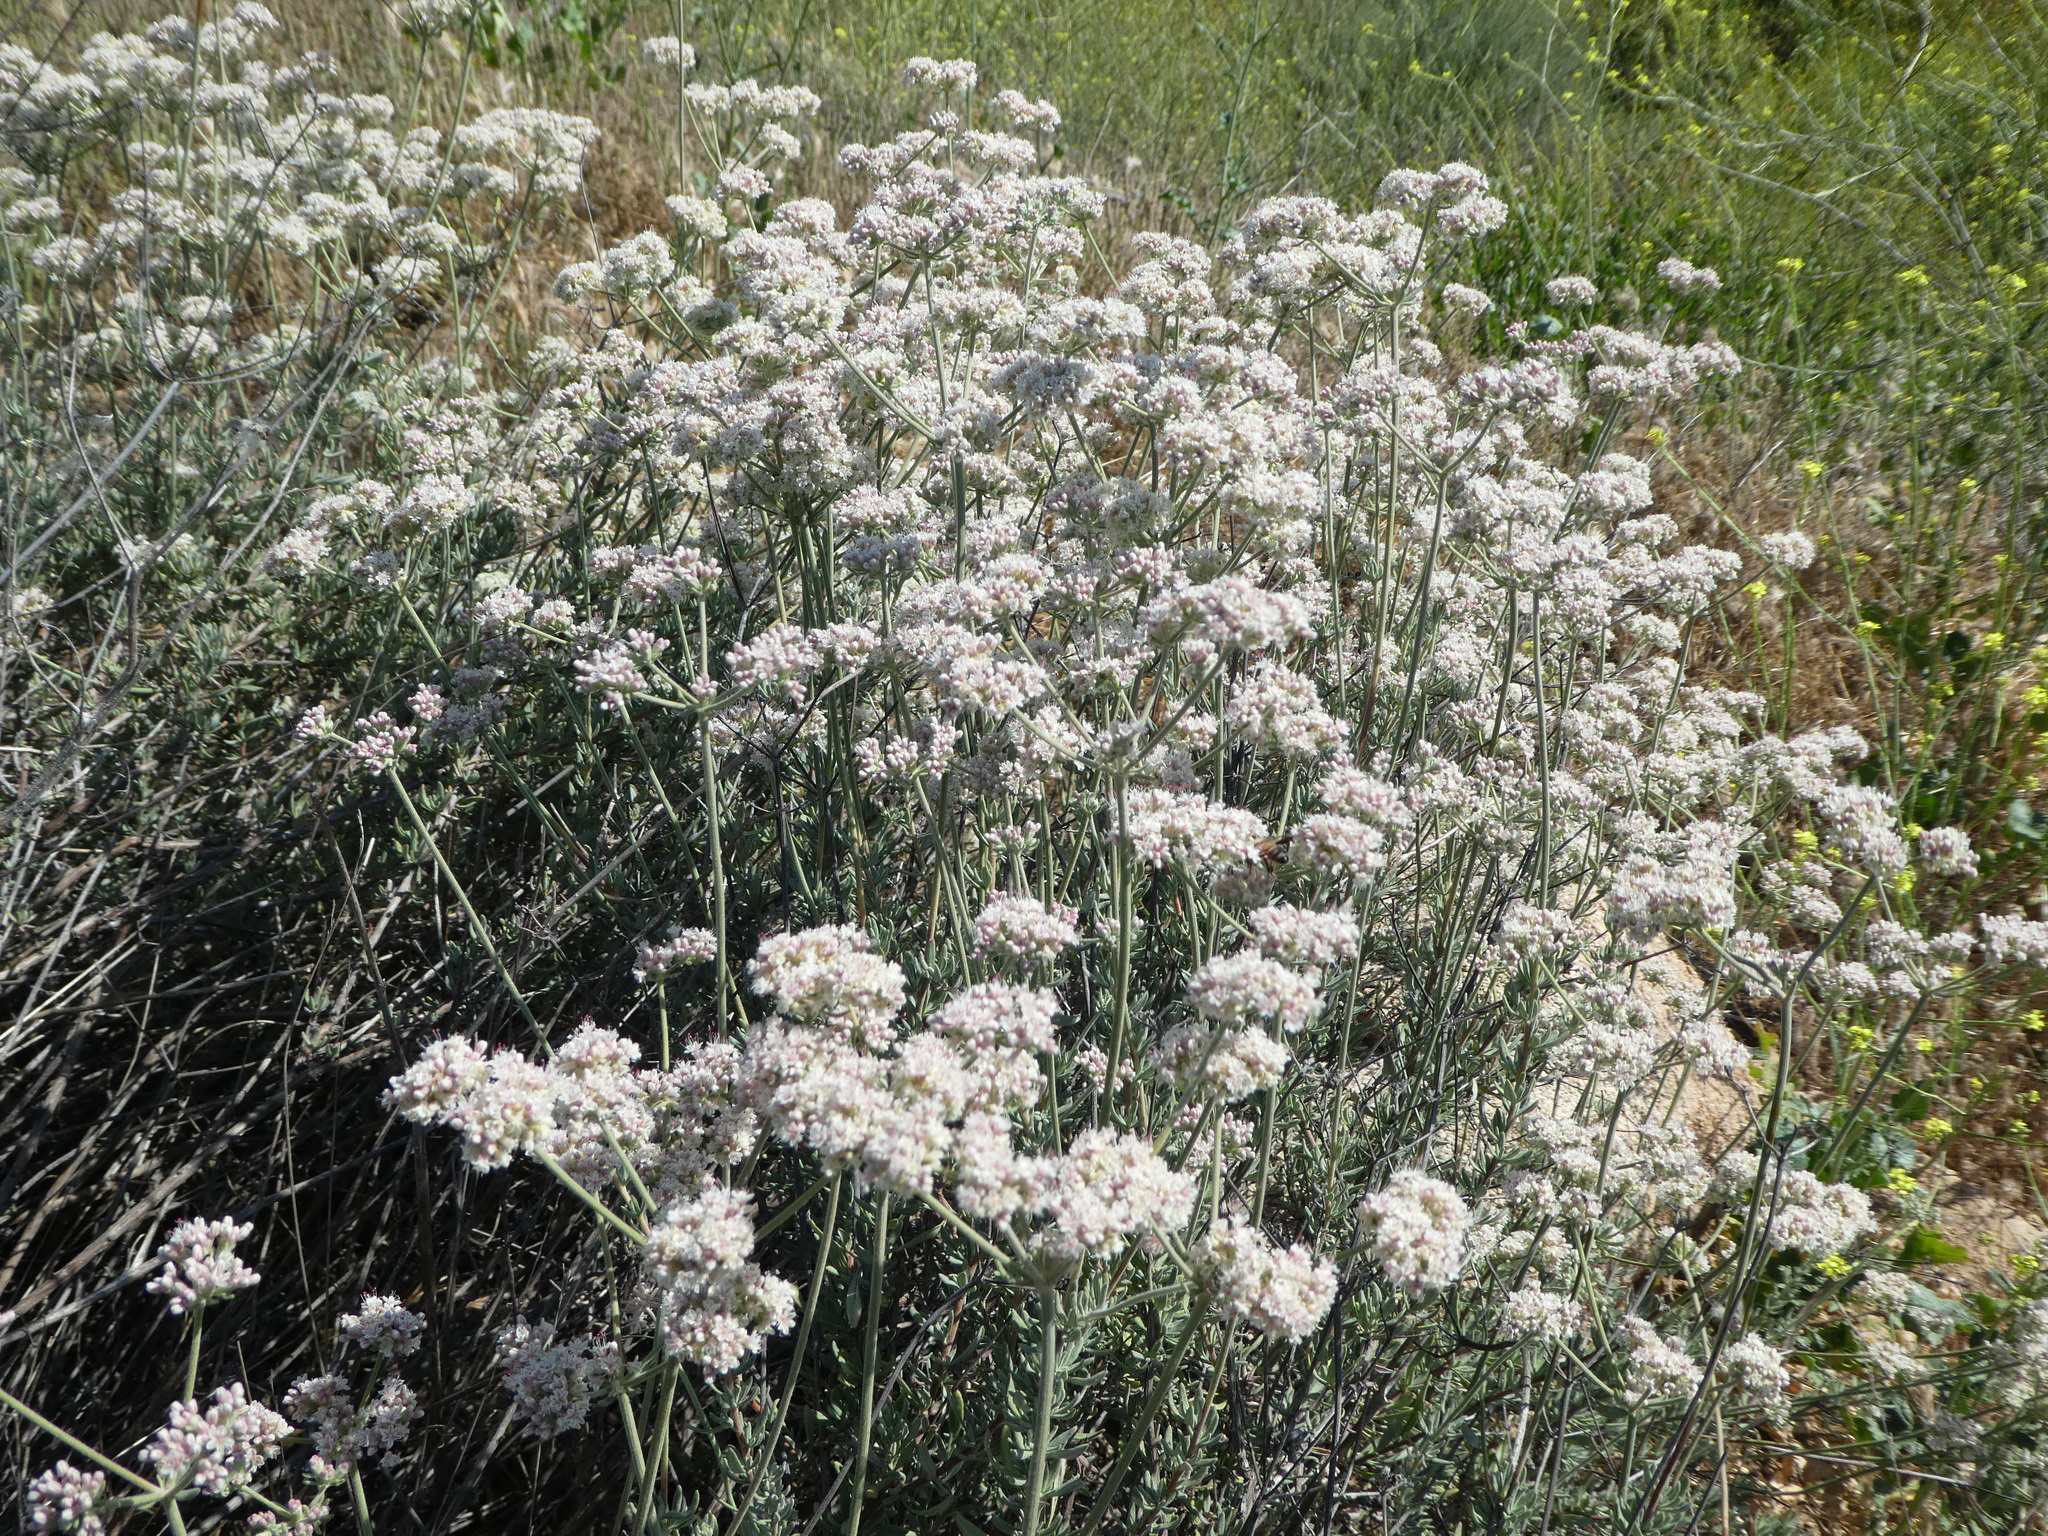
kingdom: Plantae
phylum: Tracheophyta
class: Magnoliopsida
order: Caryophyllales
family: Polygonaceae
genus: Eriogonum
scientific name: Eriogonum fasciculatum
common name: California wild buckwheat
